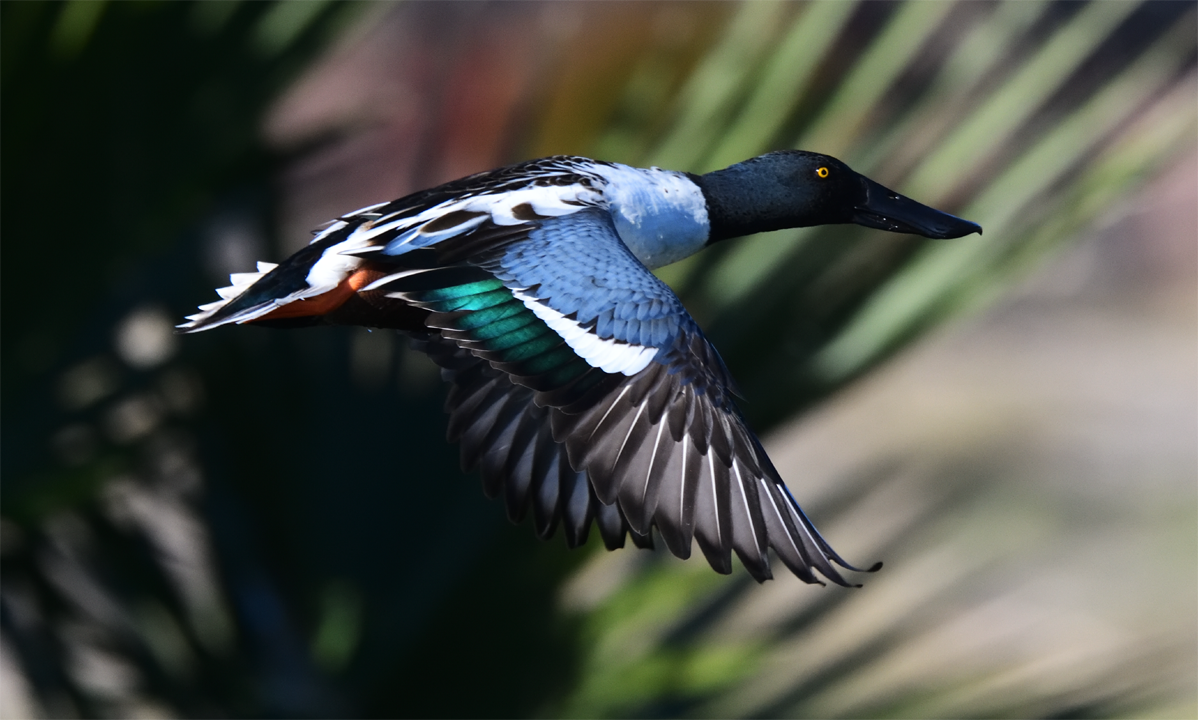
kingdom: Animalia
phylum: Chordata
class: Aves
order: Anseriformes
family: Anatidae
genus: Spatula
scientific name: Spatula clypeata
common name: Northern shoveler
